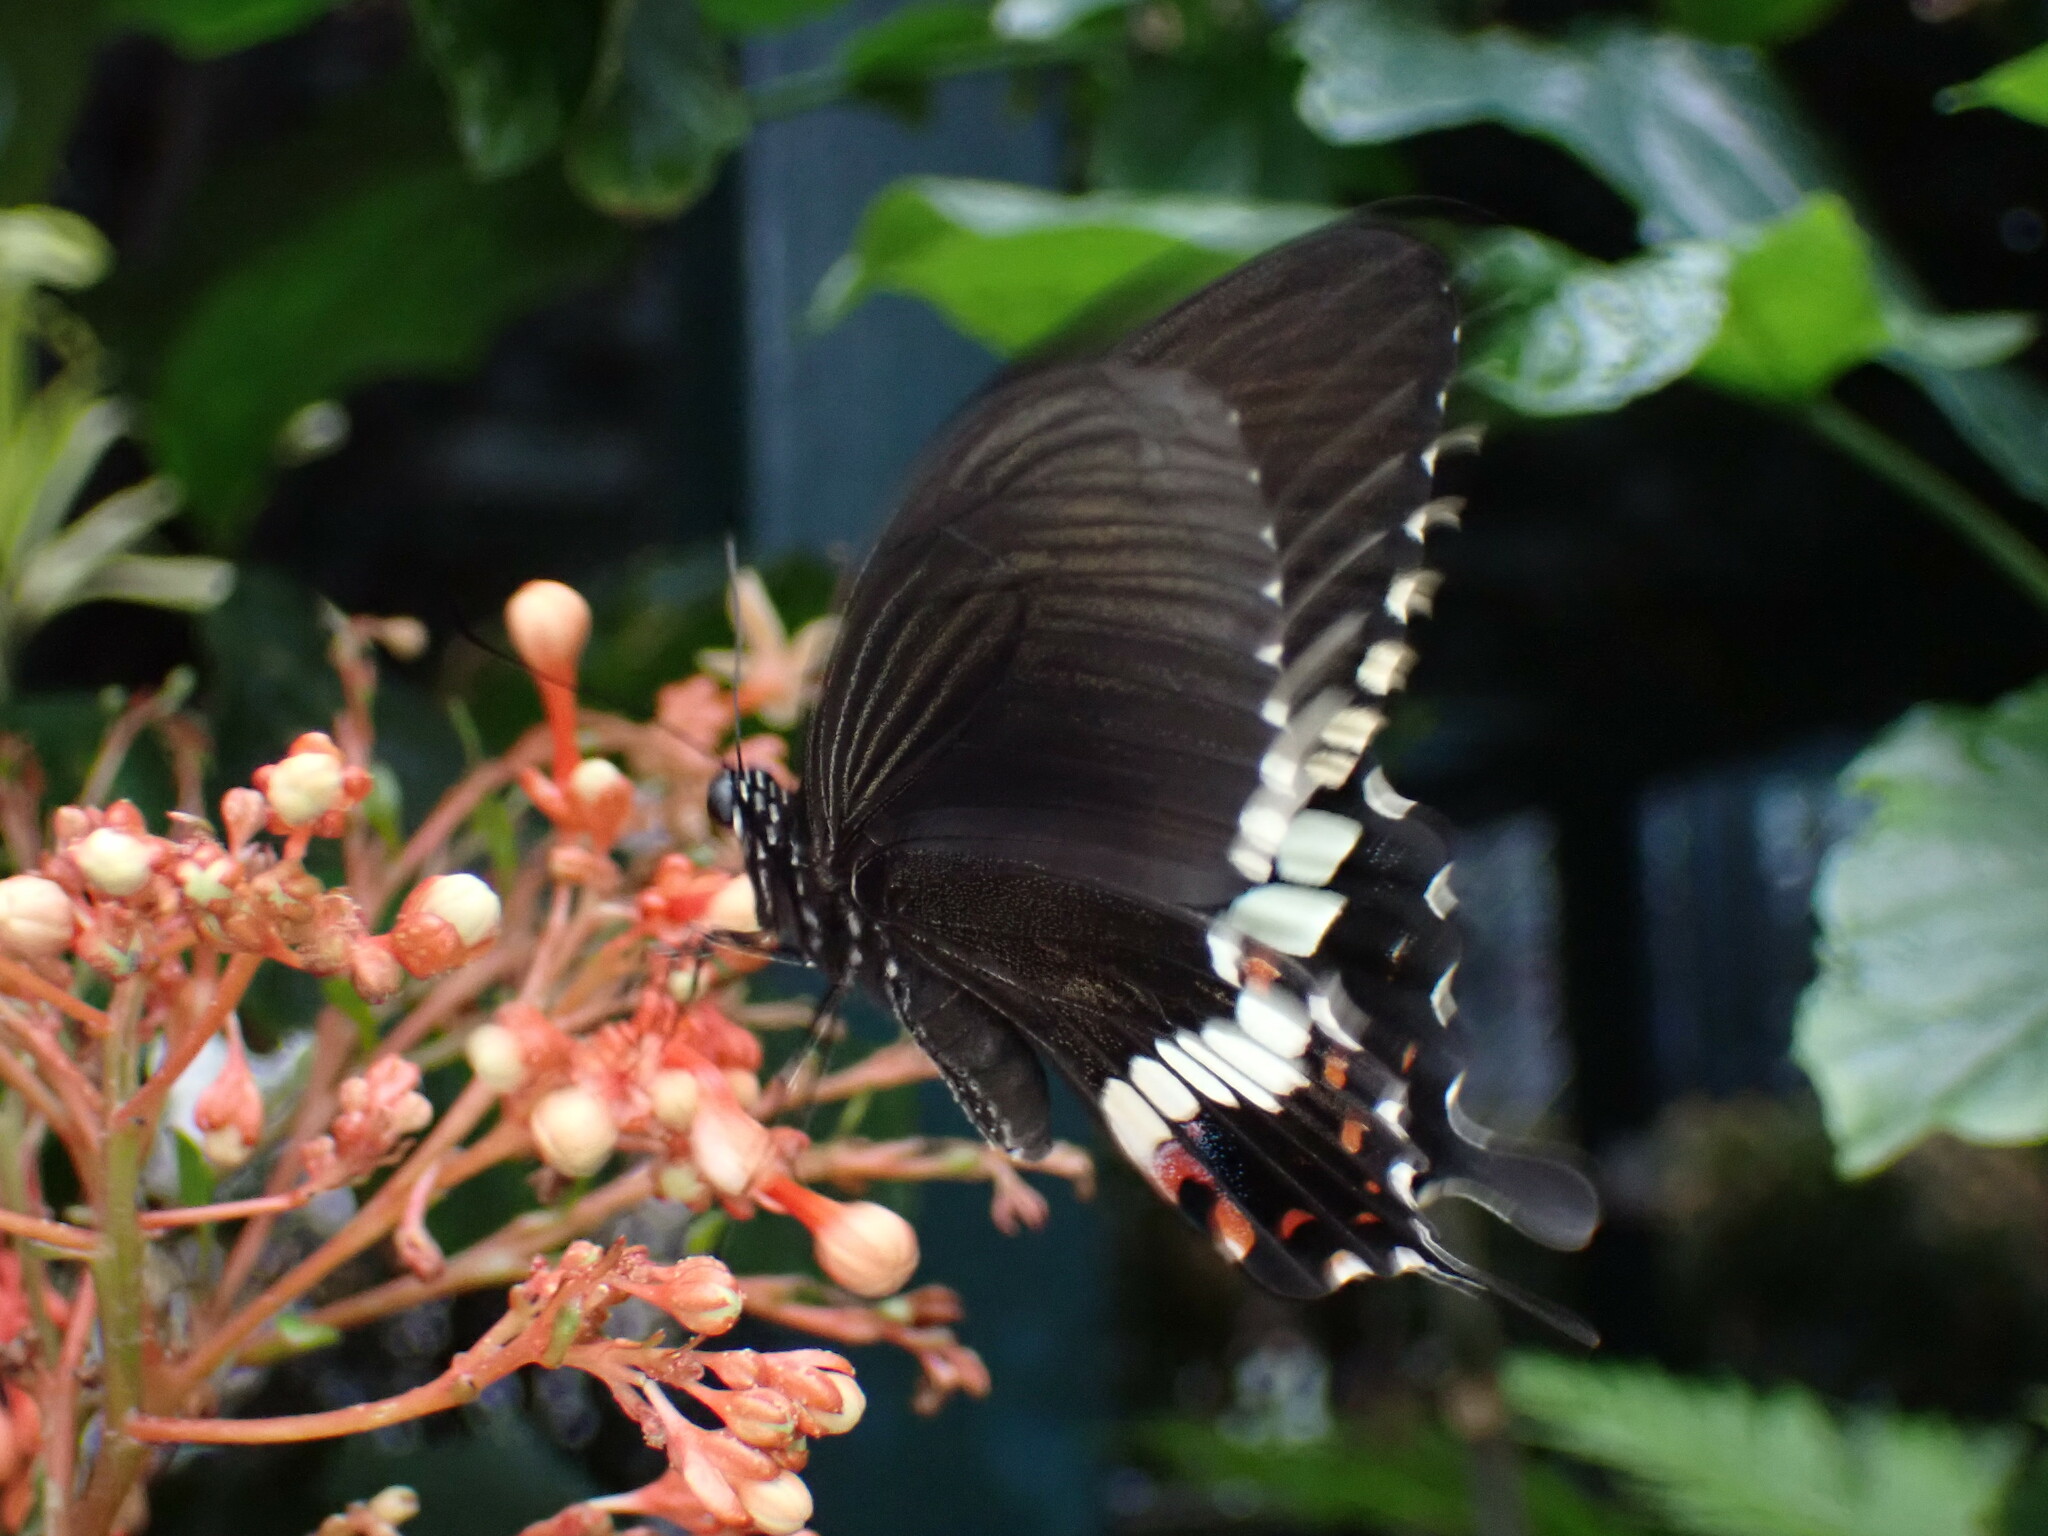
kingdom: Animalia
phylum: Arthropoda
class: Insecta
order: Lepidoptera
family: Papilionidae
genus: Papilio
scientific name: Papilio polytes
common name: Common mormon
